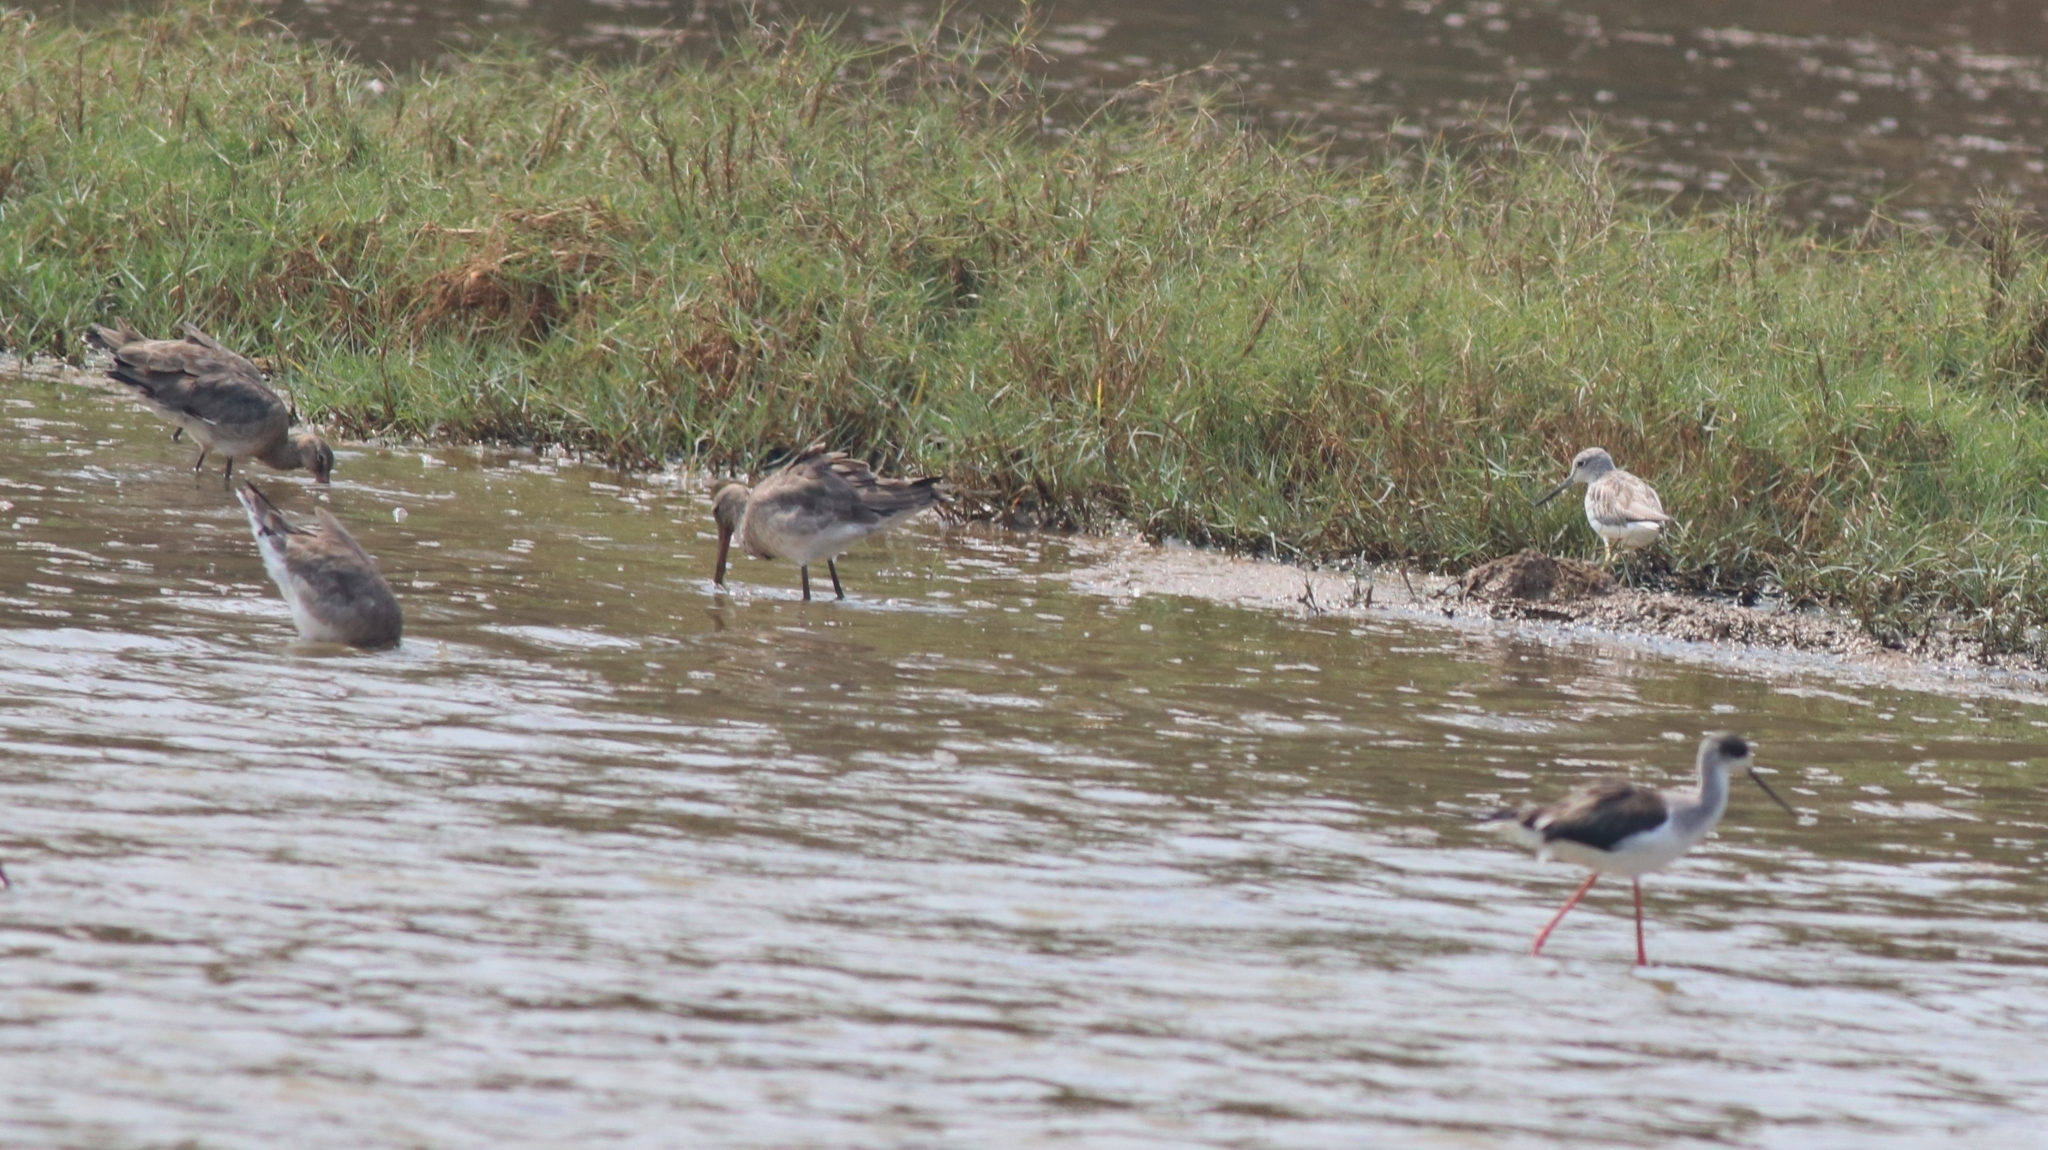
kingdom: Animalia
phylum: Chordata
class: Aves
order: Charadriiformes
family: Scolopacidae
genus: Limosa
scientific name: Limosa limosa
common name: Black-tailed godwit
